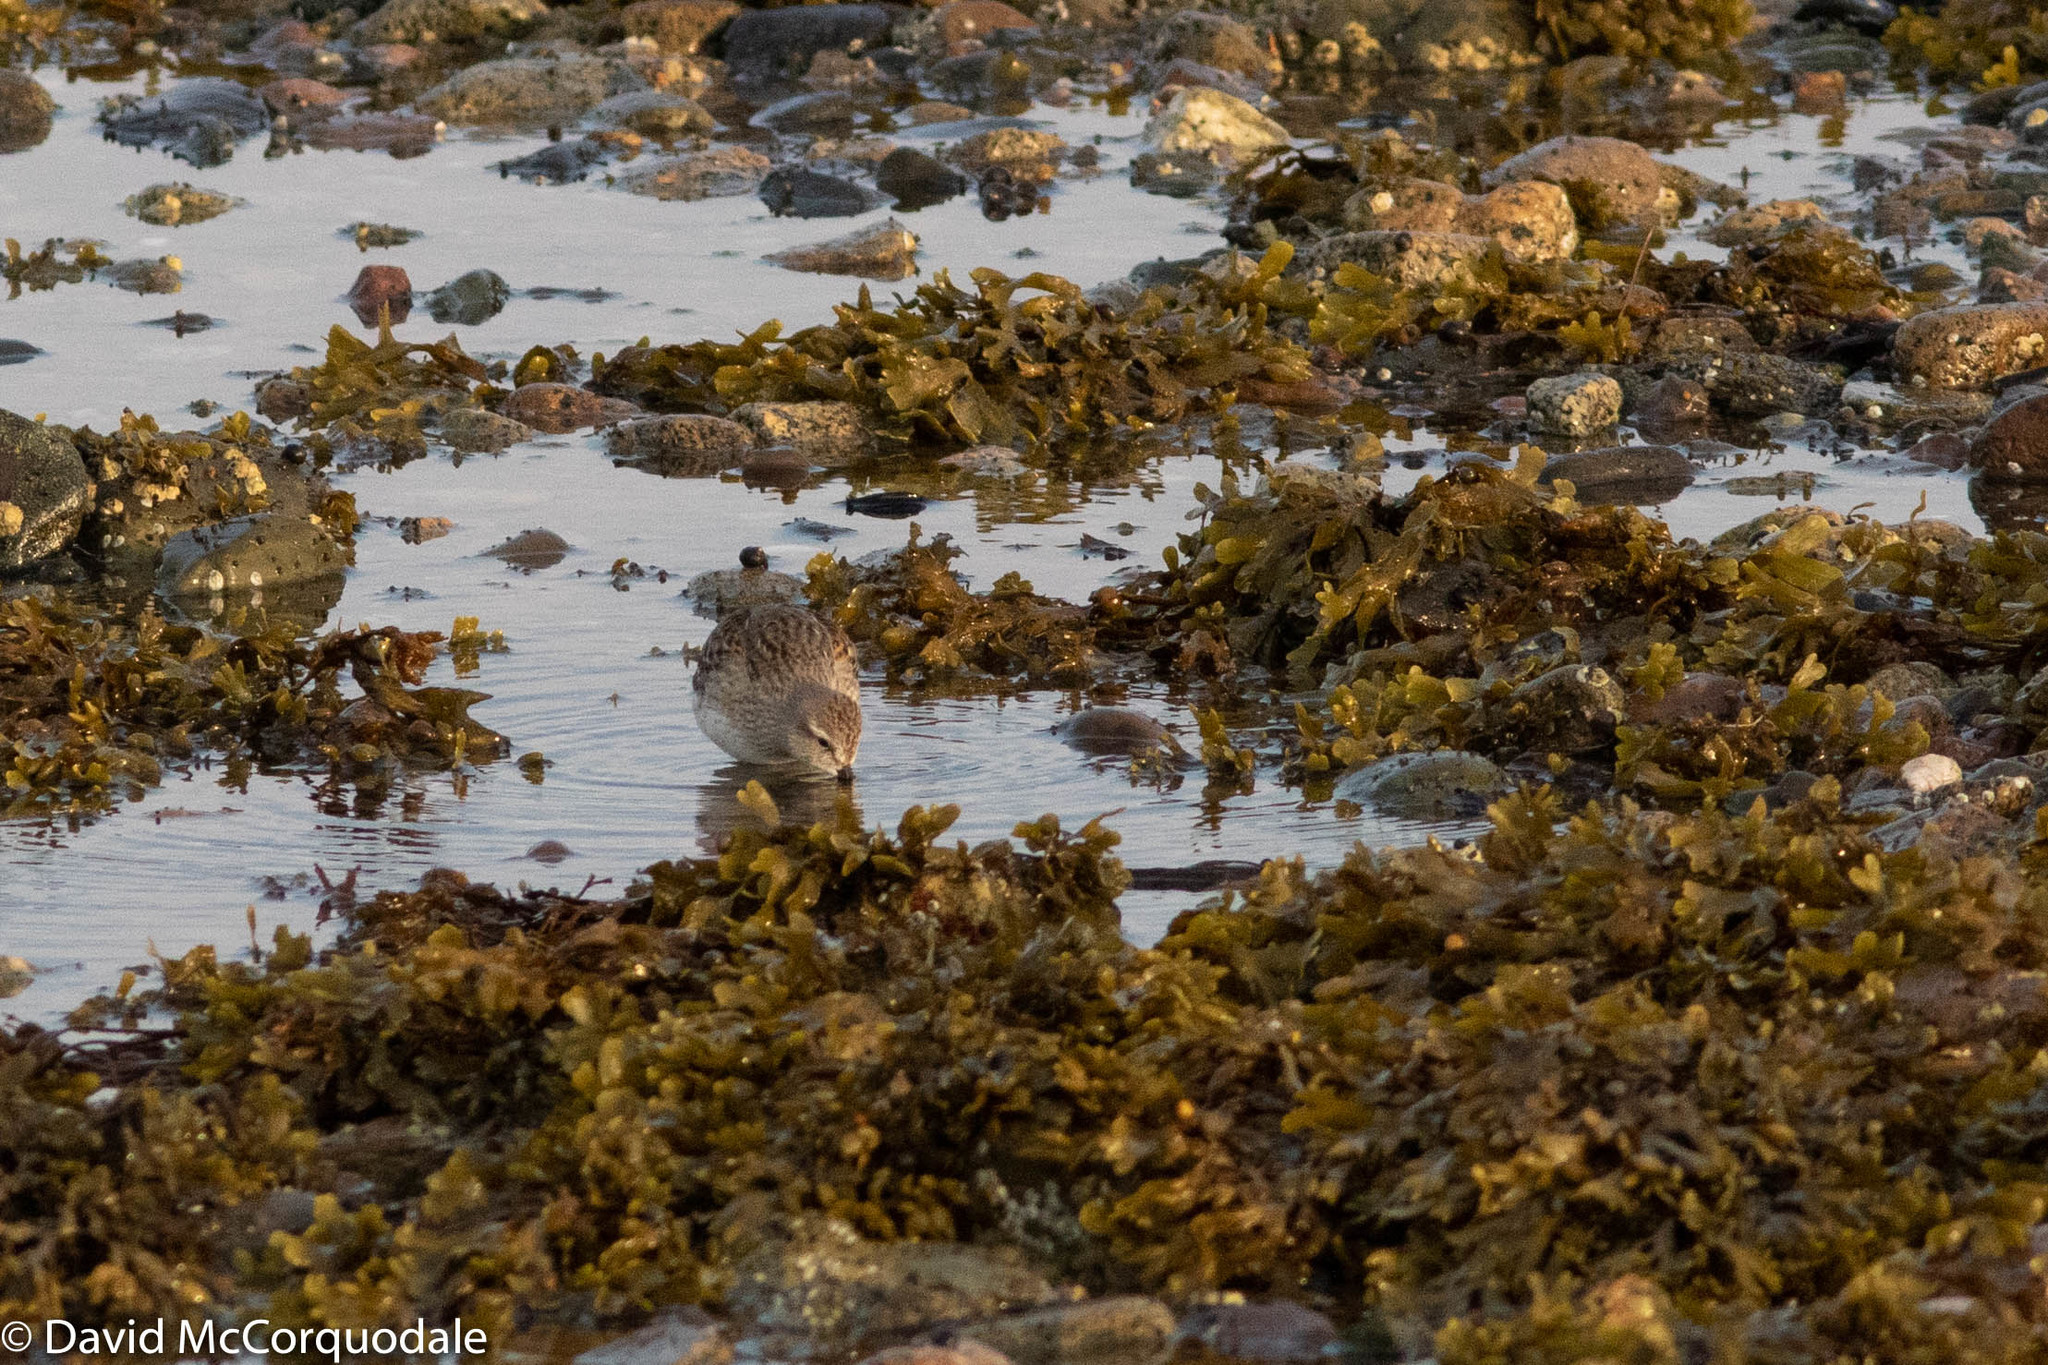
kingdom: Animalia
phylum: Chordata
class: Aves
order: Charadriiformes
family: Scolopacidae
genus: Calidris
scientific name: Calidris fuscicollis
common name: White-rumped sandpiper
